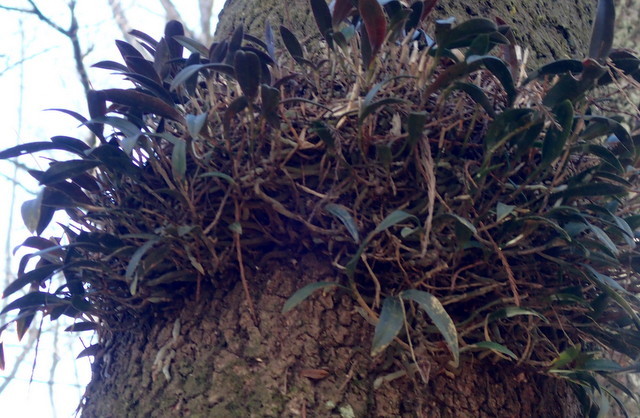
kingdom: Plantae
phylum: Tracheophyta
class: Liliopsida
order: Asparagales
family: Orchidaceae
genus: Epidendrum
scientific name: Epidendrum conopseum
